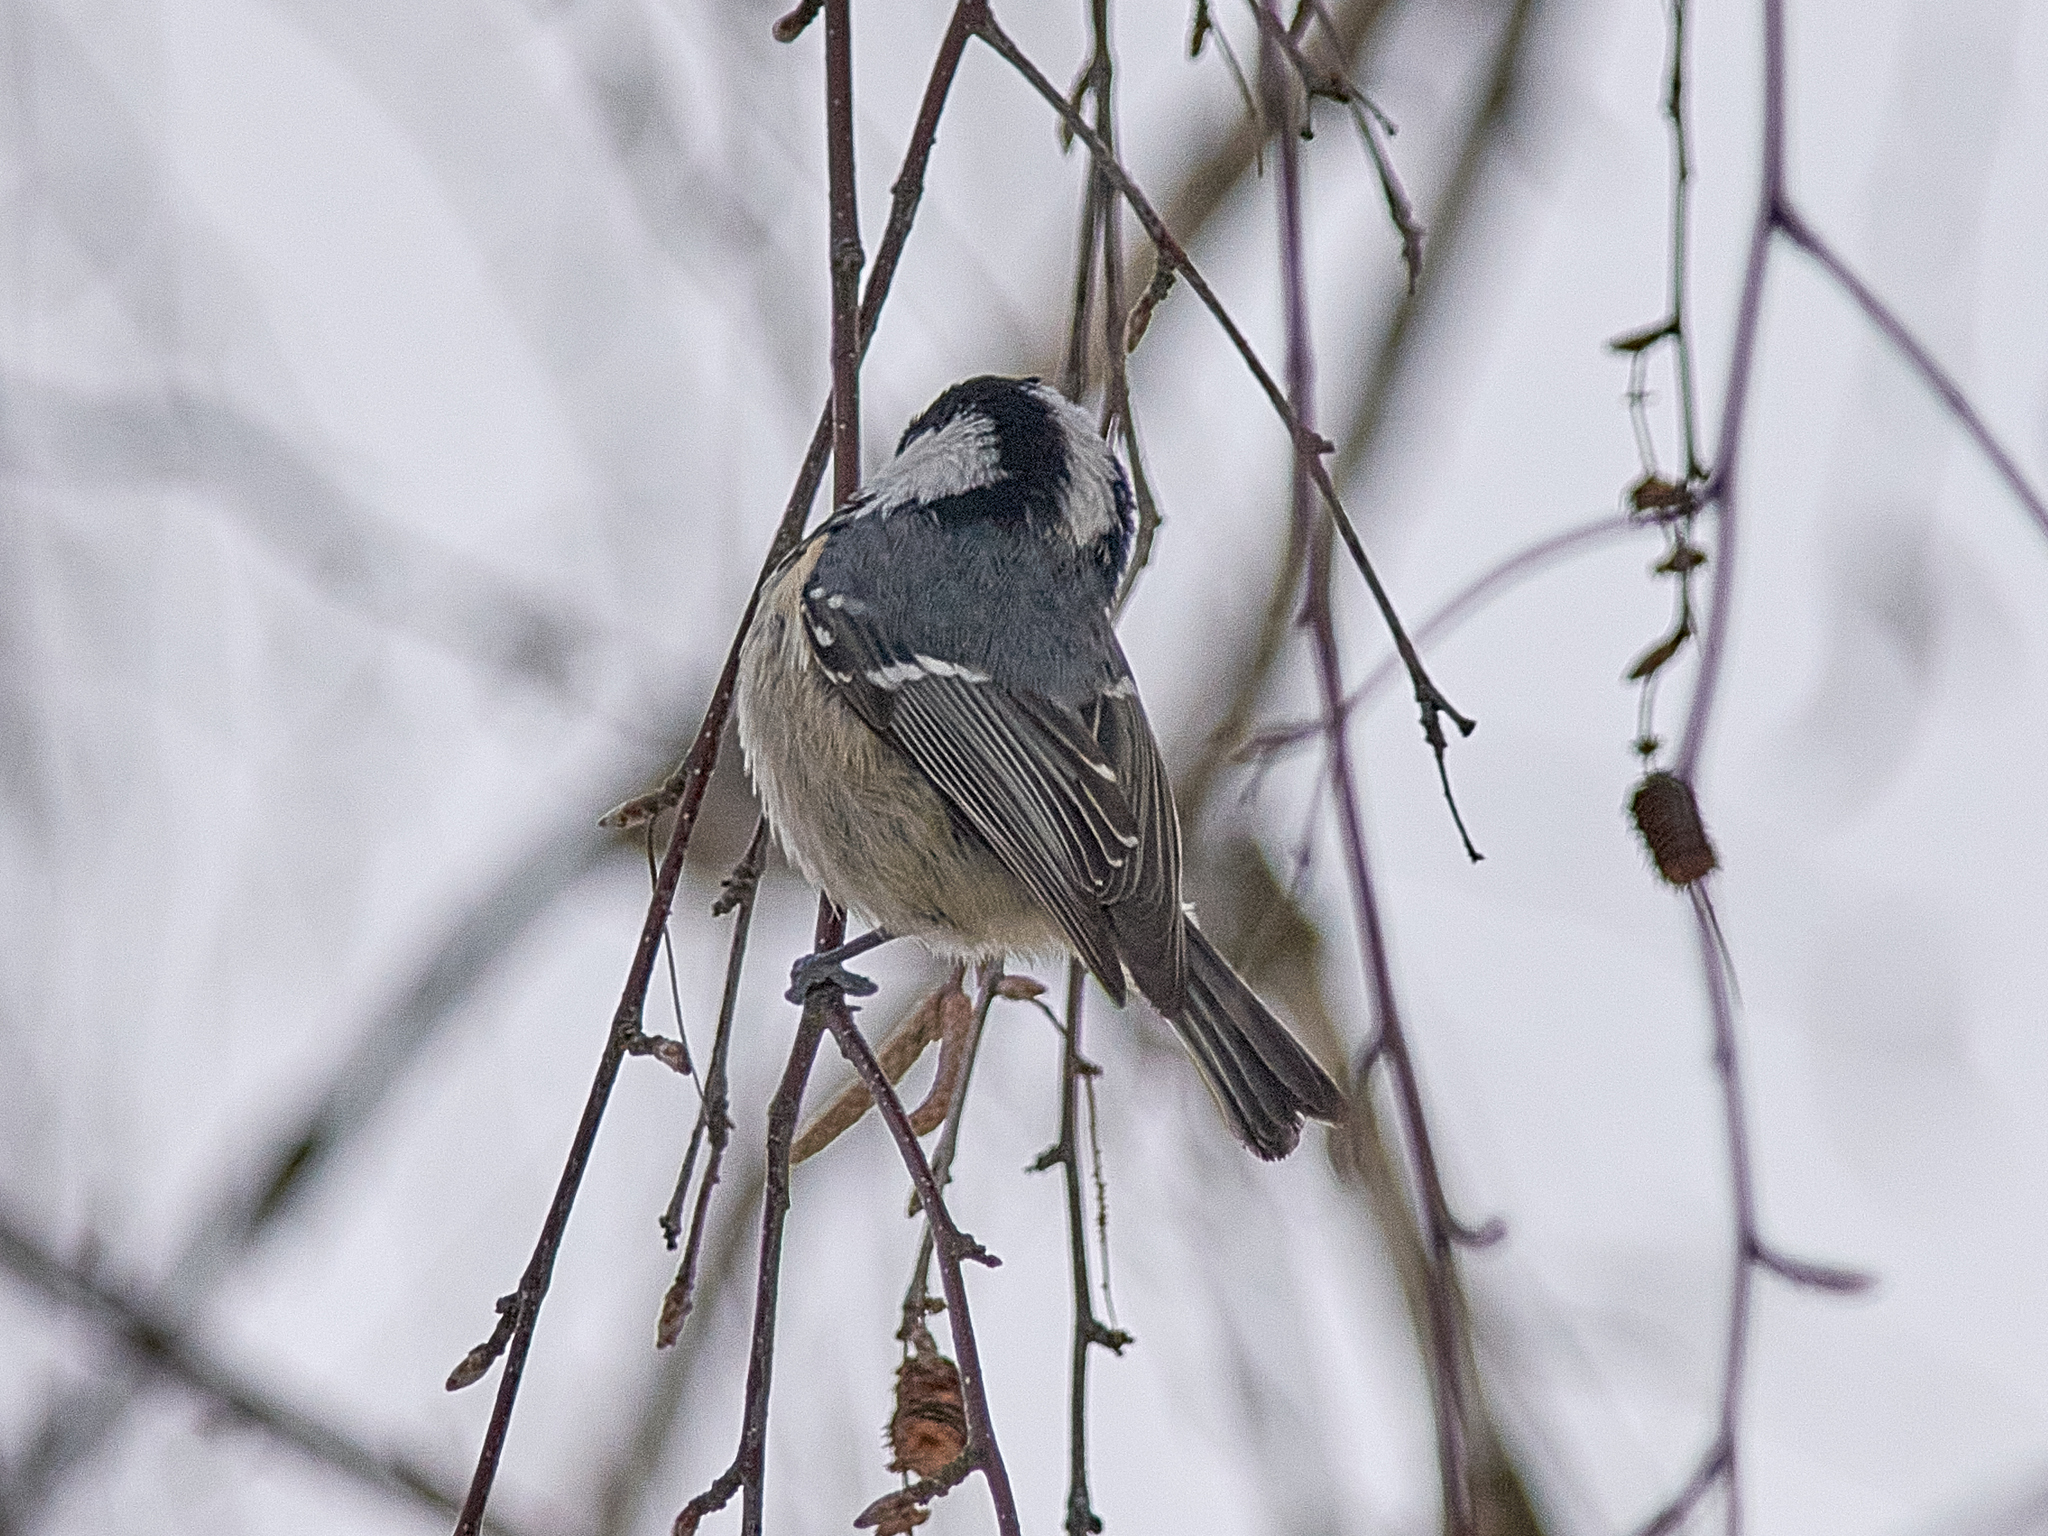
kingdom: Animalia
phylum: Chordata
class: Aves
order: Passeriformes
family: Paridae
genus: Periparus
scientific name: Periparus ater
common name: Coal tit
